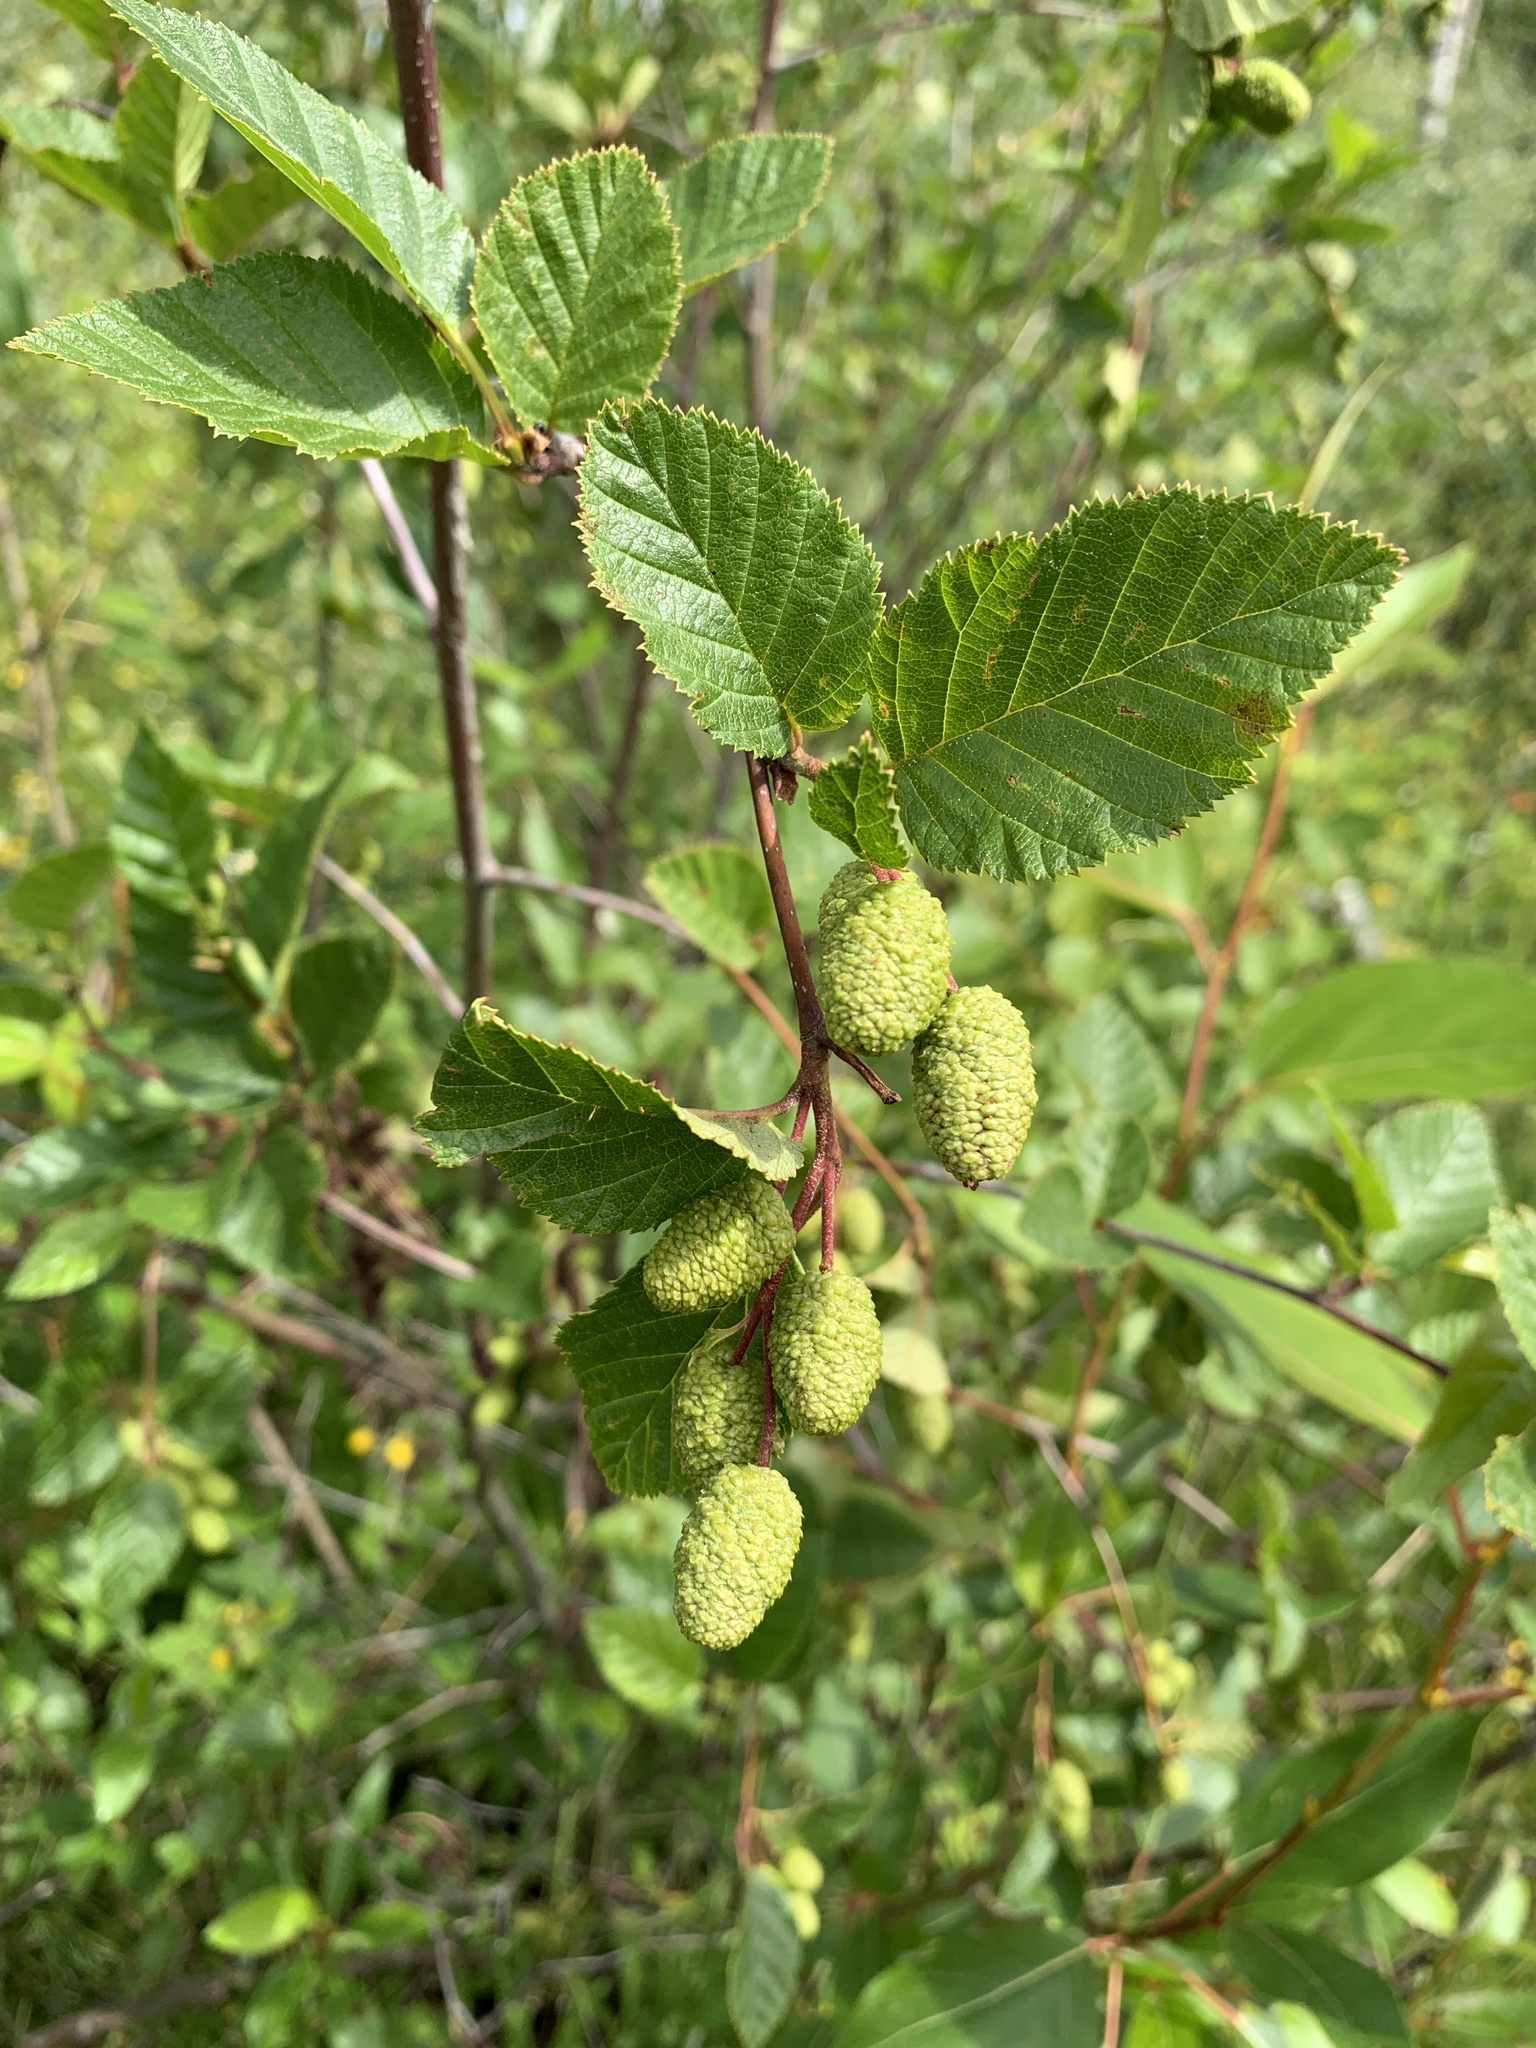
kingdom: Plantae
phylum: Tracheophyta
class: Magnoliopsida
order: Fagales
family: Betulaceae
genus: Alnus
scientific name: Alnus alnobetula
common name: Green alder
